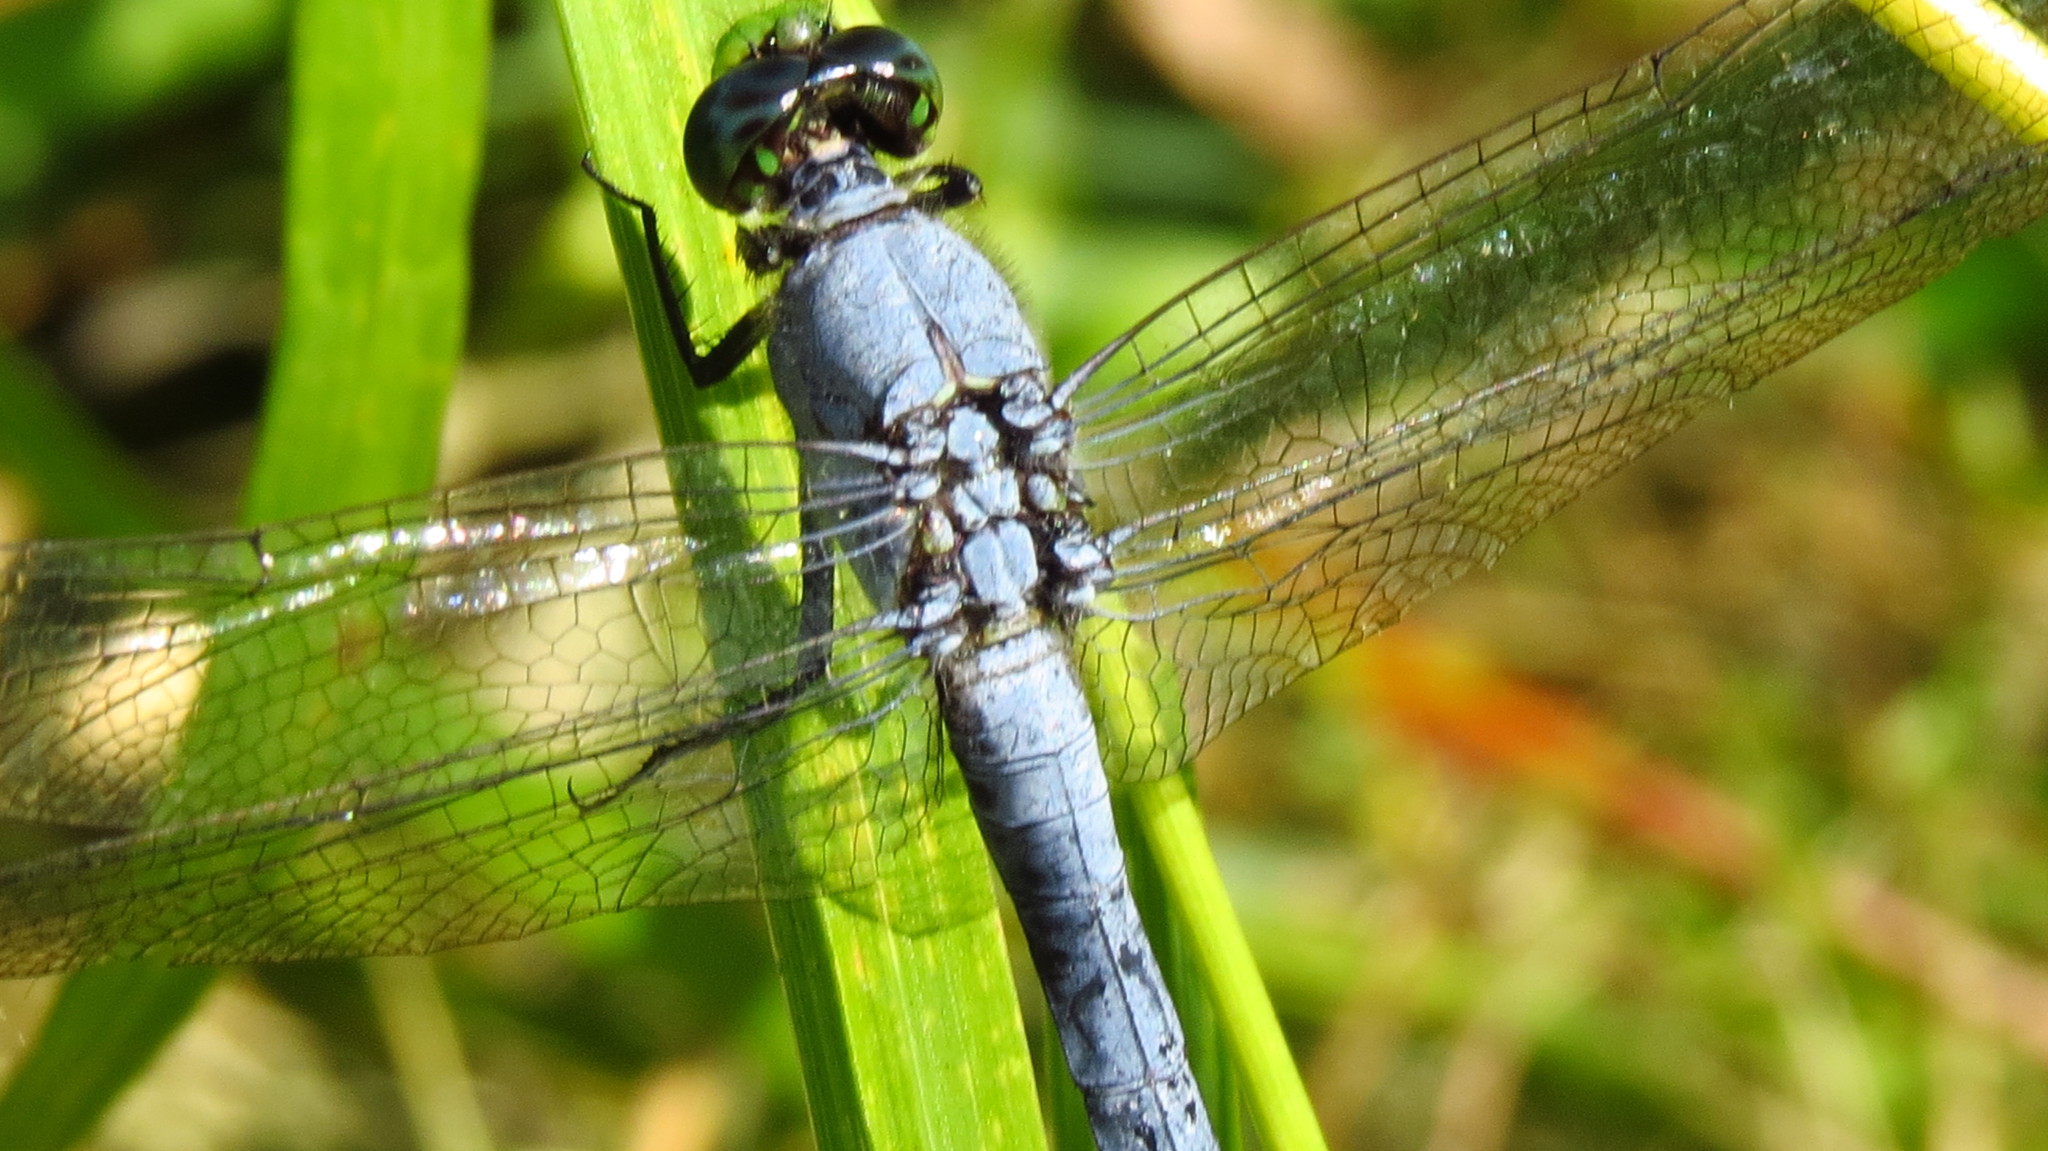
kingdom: Animalia
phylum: Arthropoda
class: Insecta
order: Odonata
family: Libellulidae
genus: Erythemis
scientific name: Erythemis simplicicollis
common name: Eastern pondhawk
